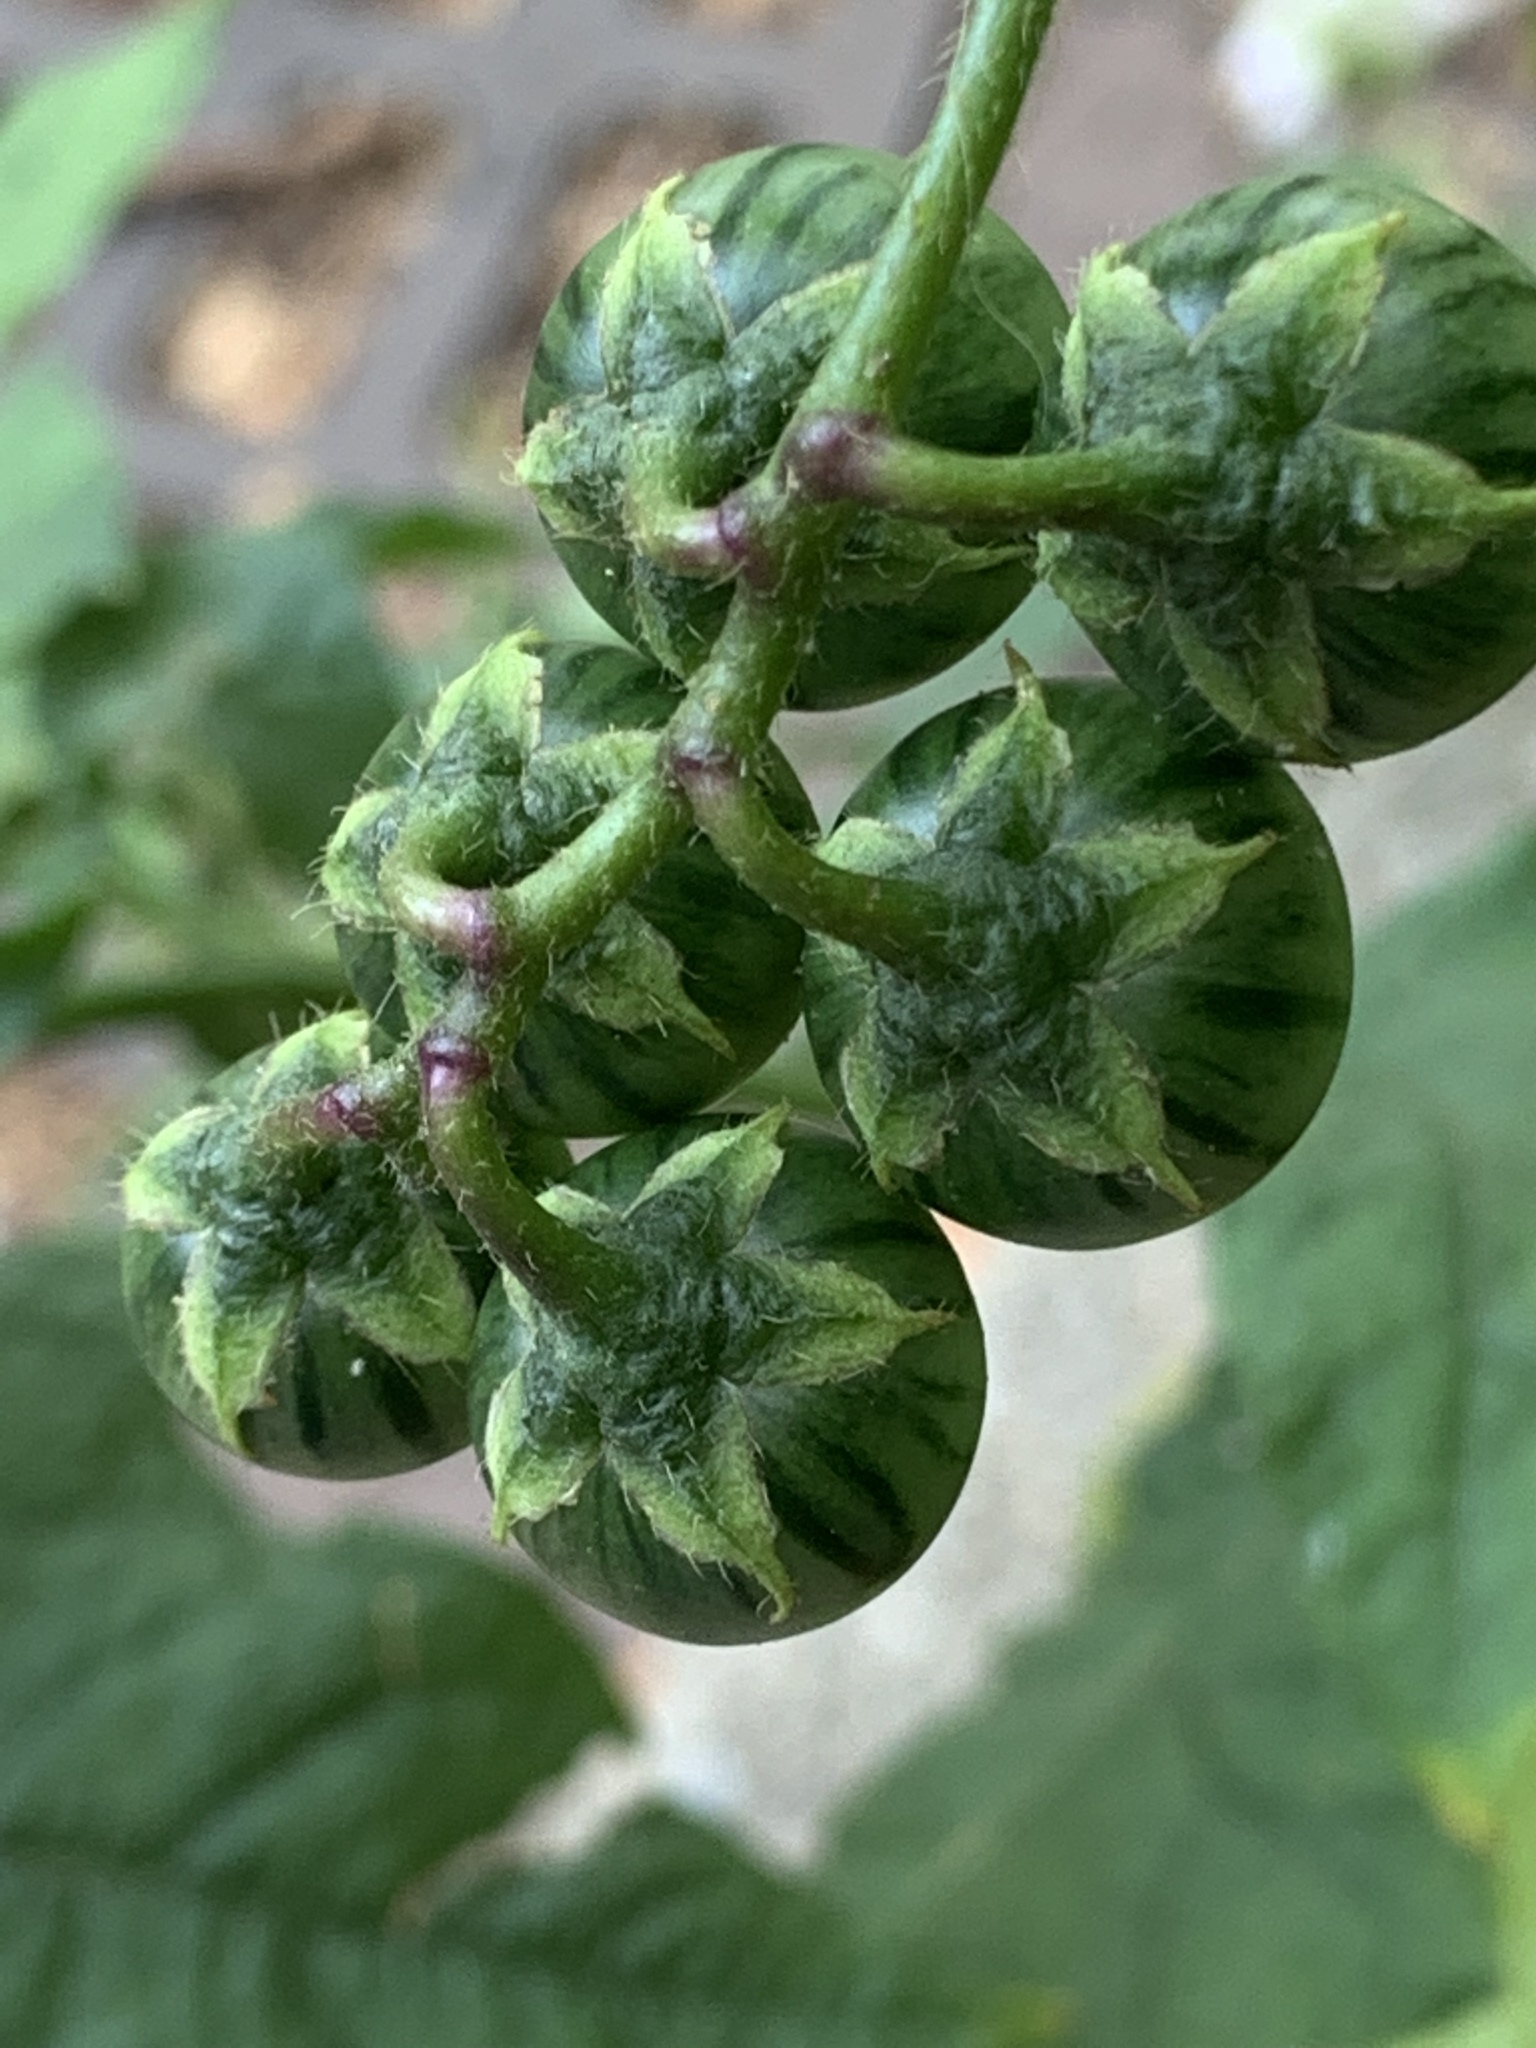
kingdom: Plantae
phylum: Tracheophyta
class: Magnoliopsida
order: Solanales
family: Solanaceae
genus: Solanum
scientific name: Solanum carolinense
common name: Horse-nettle
